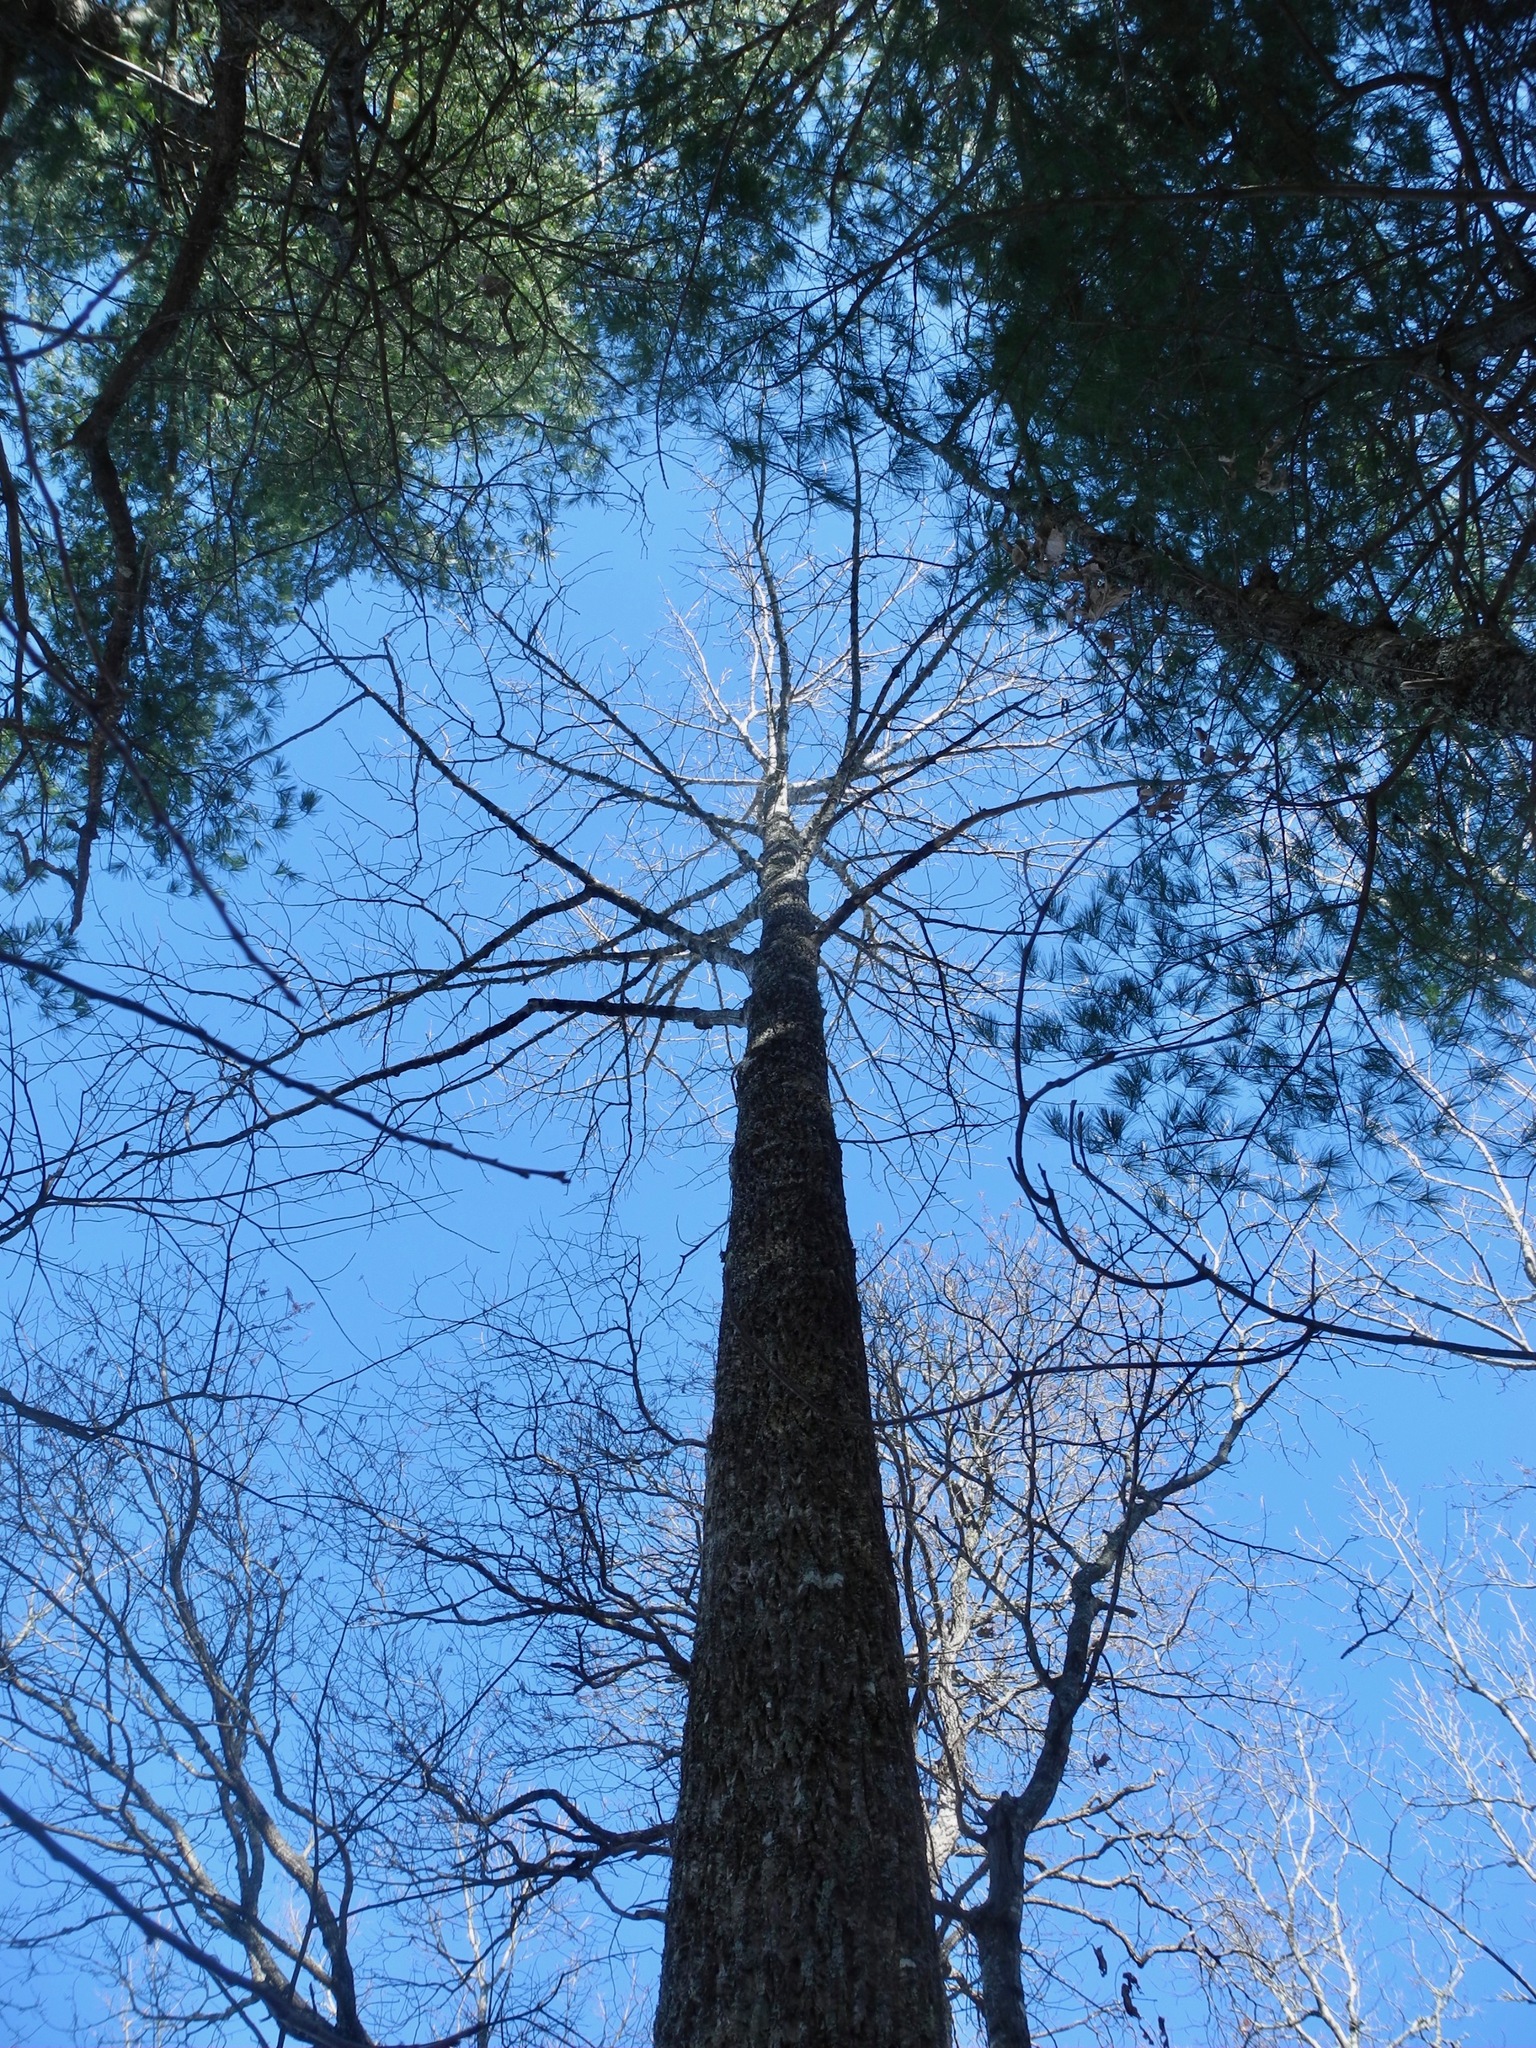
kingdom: Plantae
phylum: Tracheophyta
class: Magnoliopsida
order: Magnoliales
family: Magnoliaceae
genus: Liriodendron
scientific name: Liriodendron tulipifera
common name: Tulip tree
